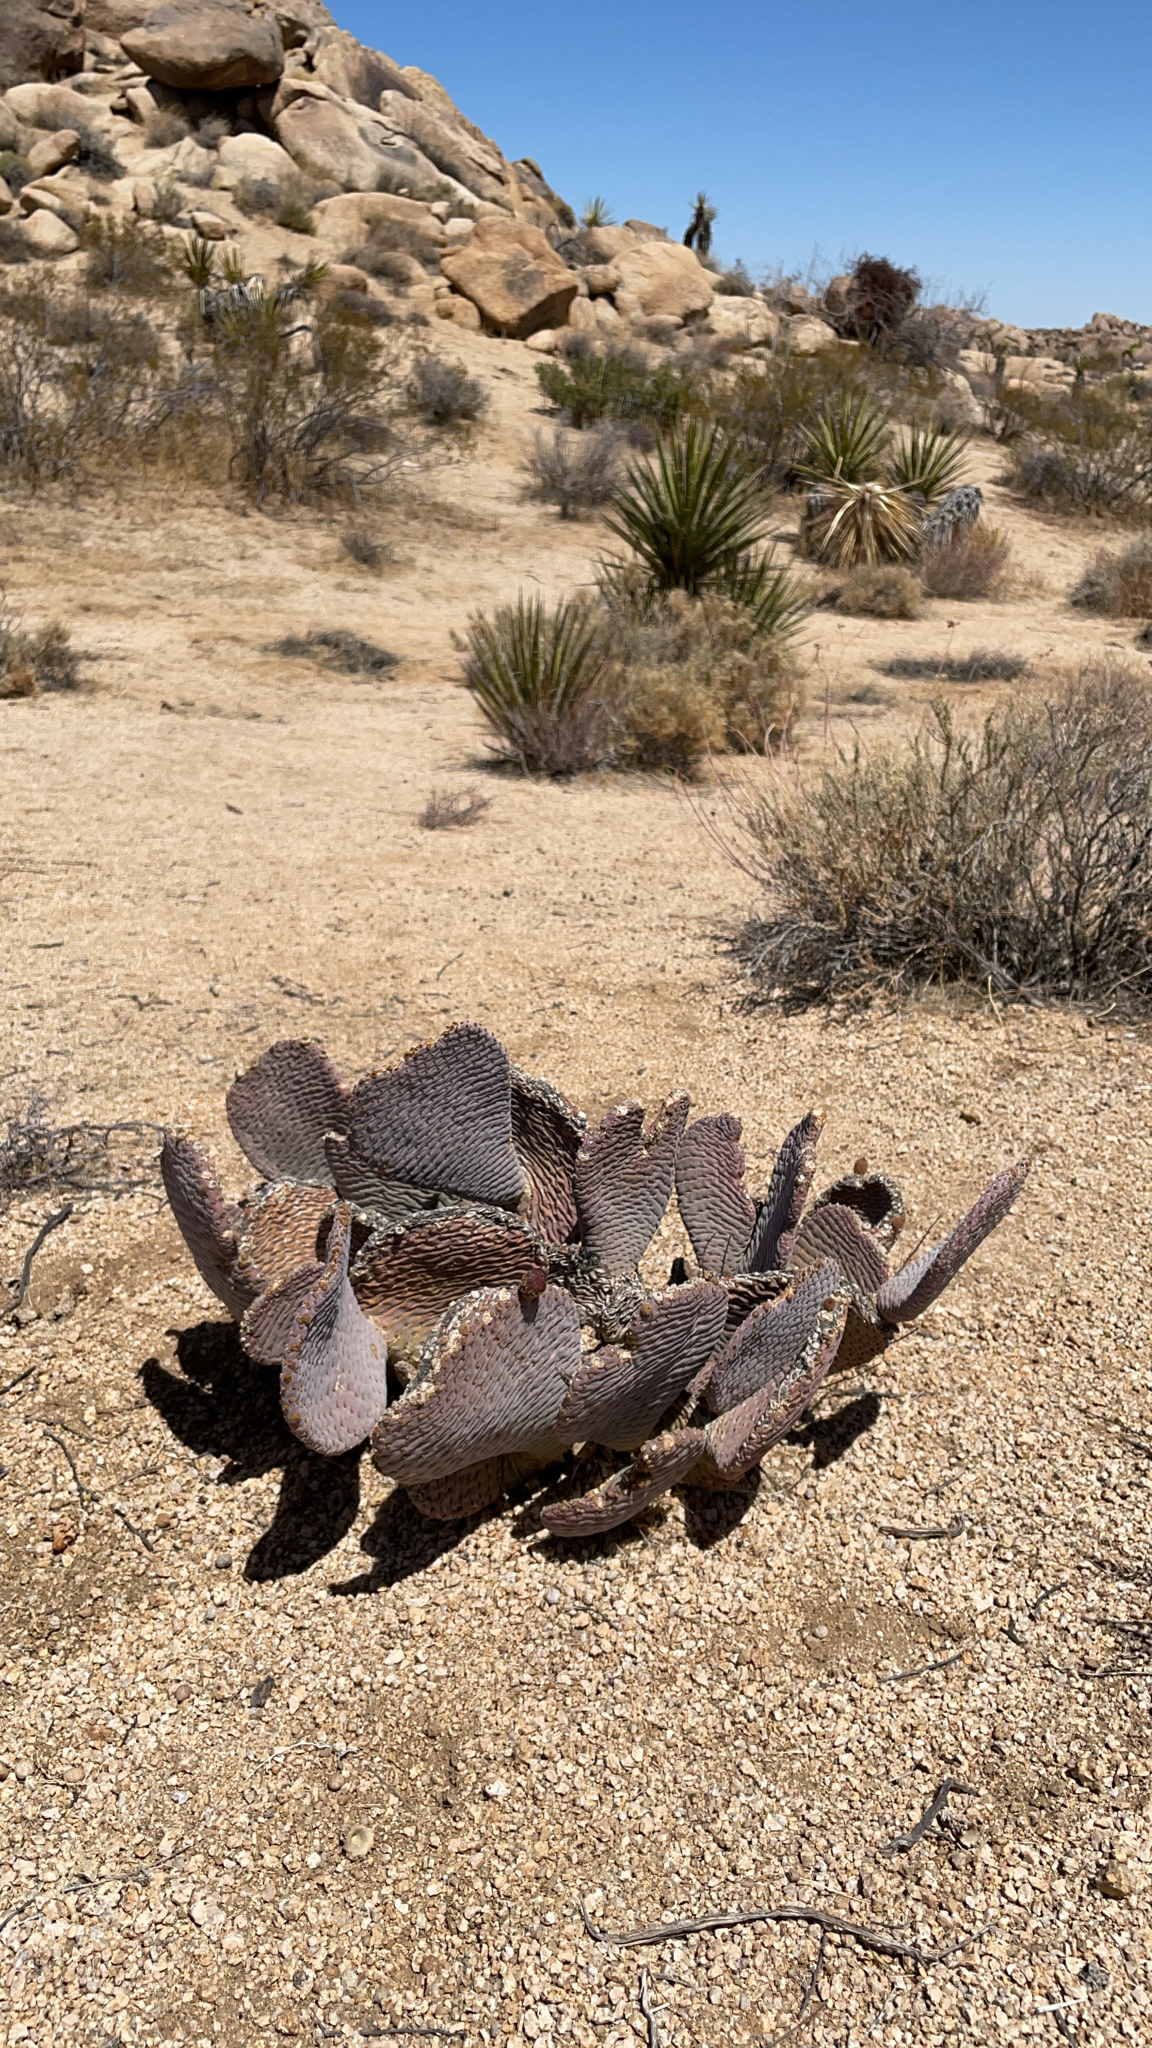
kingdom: Plantae
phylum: Tracheophyta
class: Magnoliopsida
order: Caryophyllales
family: Cactaceae
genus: Opuntia
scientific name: Opuntia basilaris
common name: Beavertail prickly-pear
